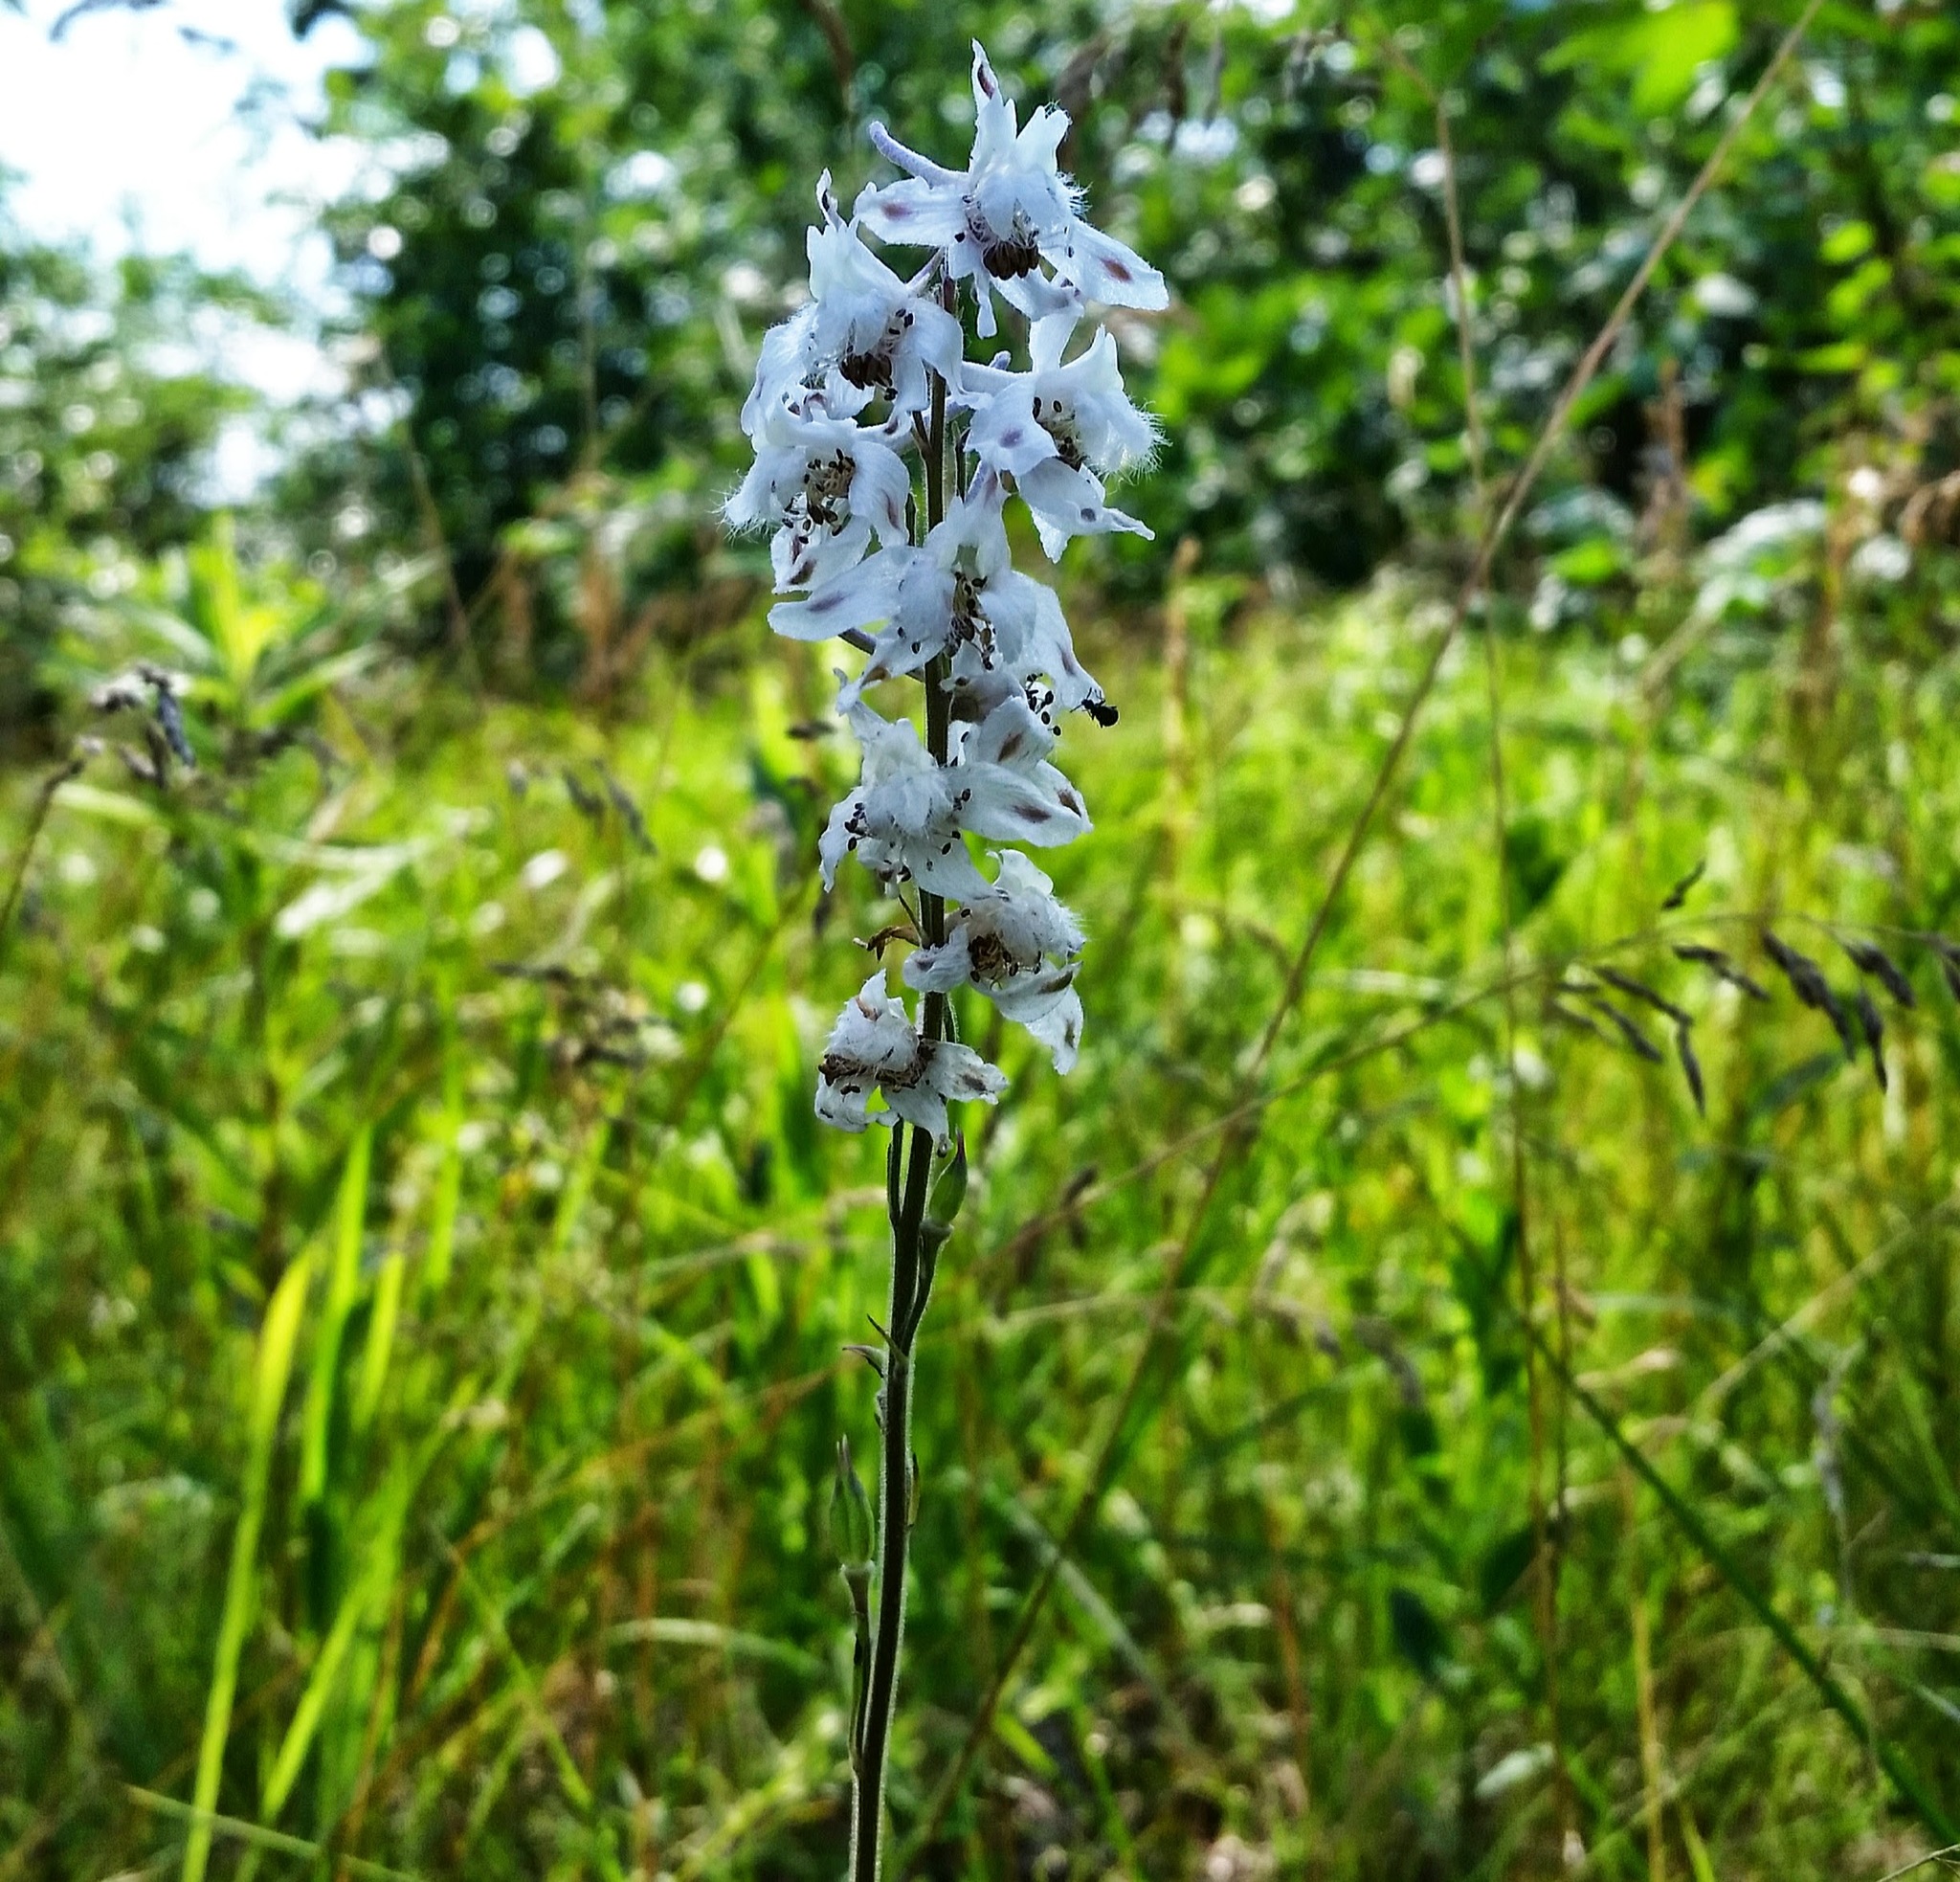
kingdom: Plantae
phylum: Tracheophyta
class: Magnoliopsida
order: Ranunculales
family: Ranunculaceae
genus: Delphinium
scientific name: Delphinium carolinianum
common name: Carolina larkspur
